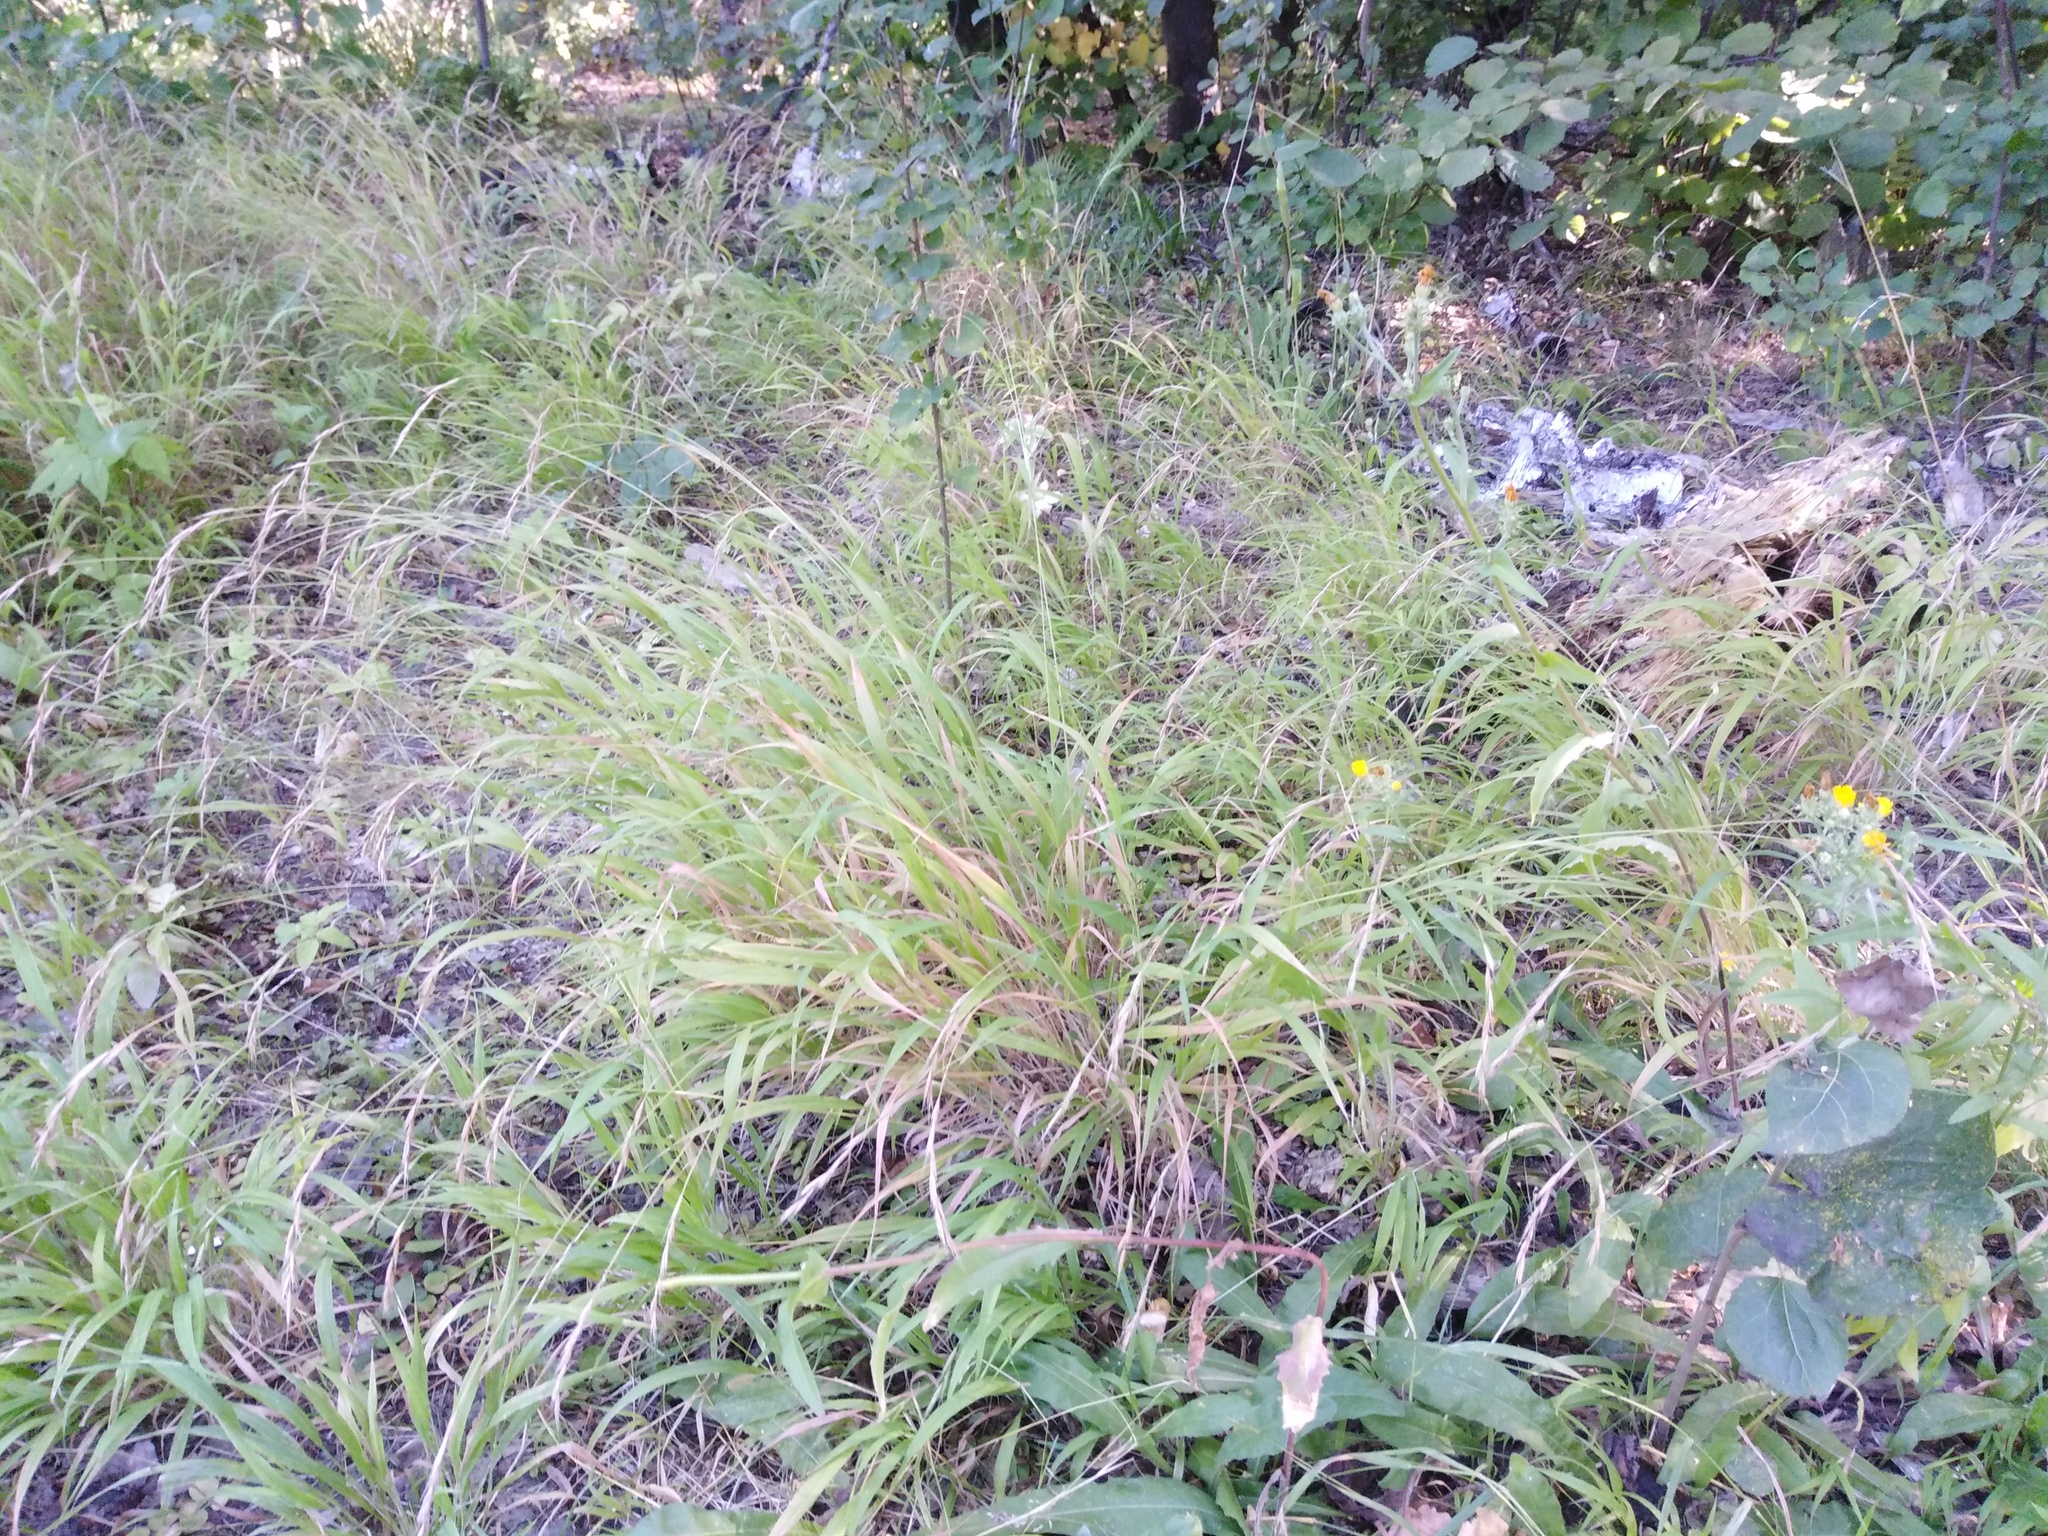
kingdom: Plantae
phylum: Tracheophyta
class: Liliopsida
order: Poales
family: Poaceae
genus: Brachypodium
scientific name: Brachypodium sylvaticum
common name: False-brome
